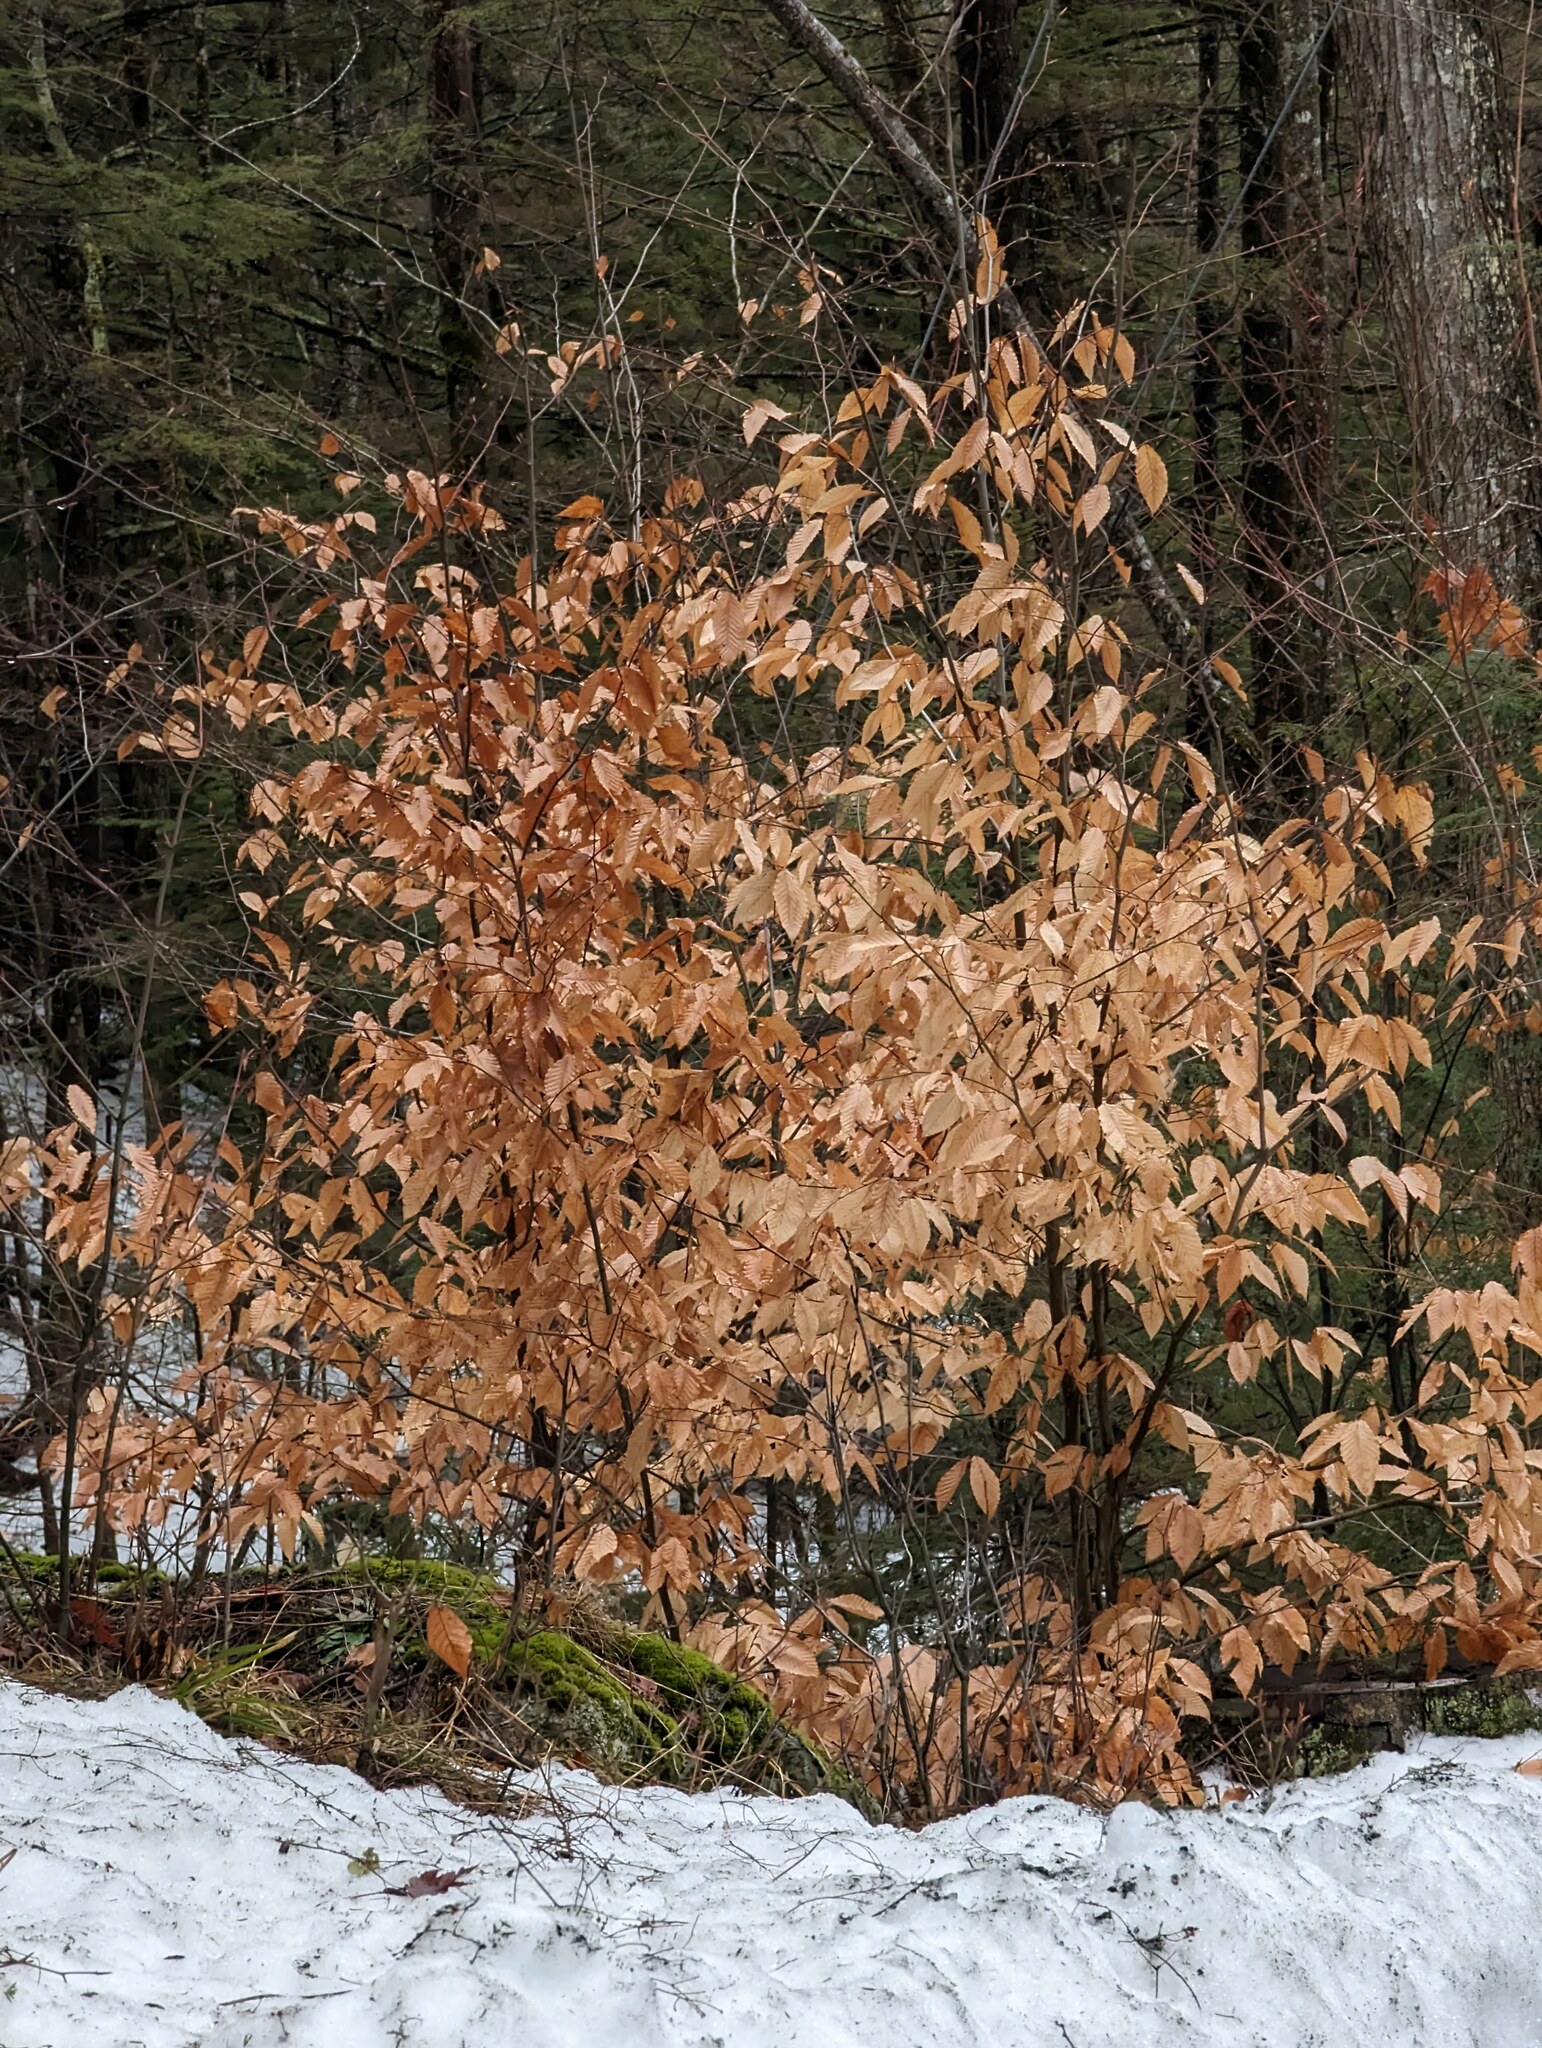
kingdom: Plantae
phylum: Tracheophyta
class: Magnoliopsida
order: Fagales
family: Fagaceae
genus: Fagus
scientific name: Fagus grandifolia
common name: American beech
